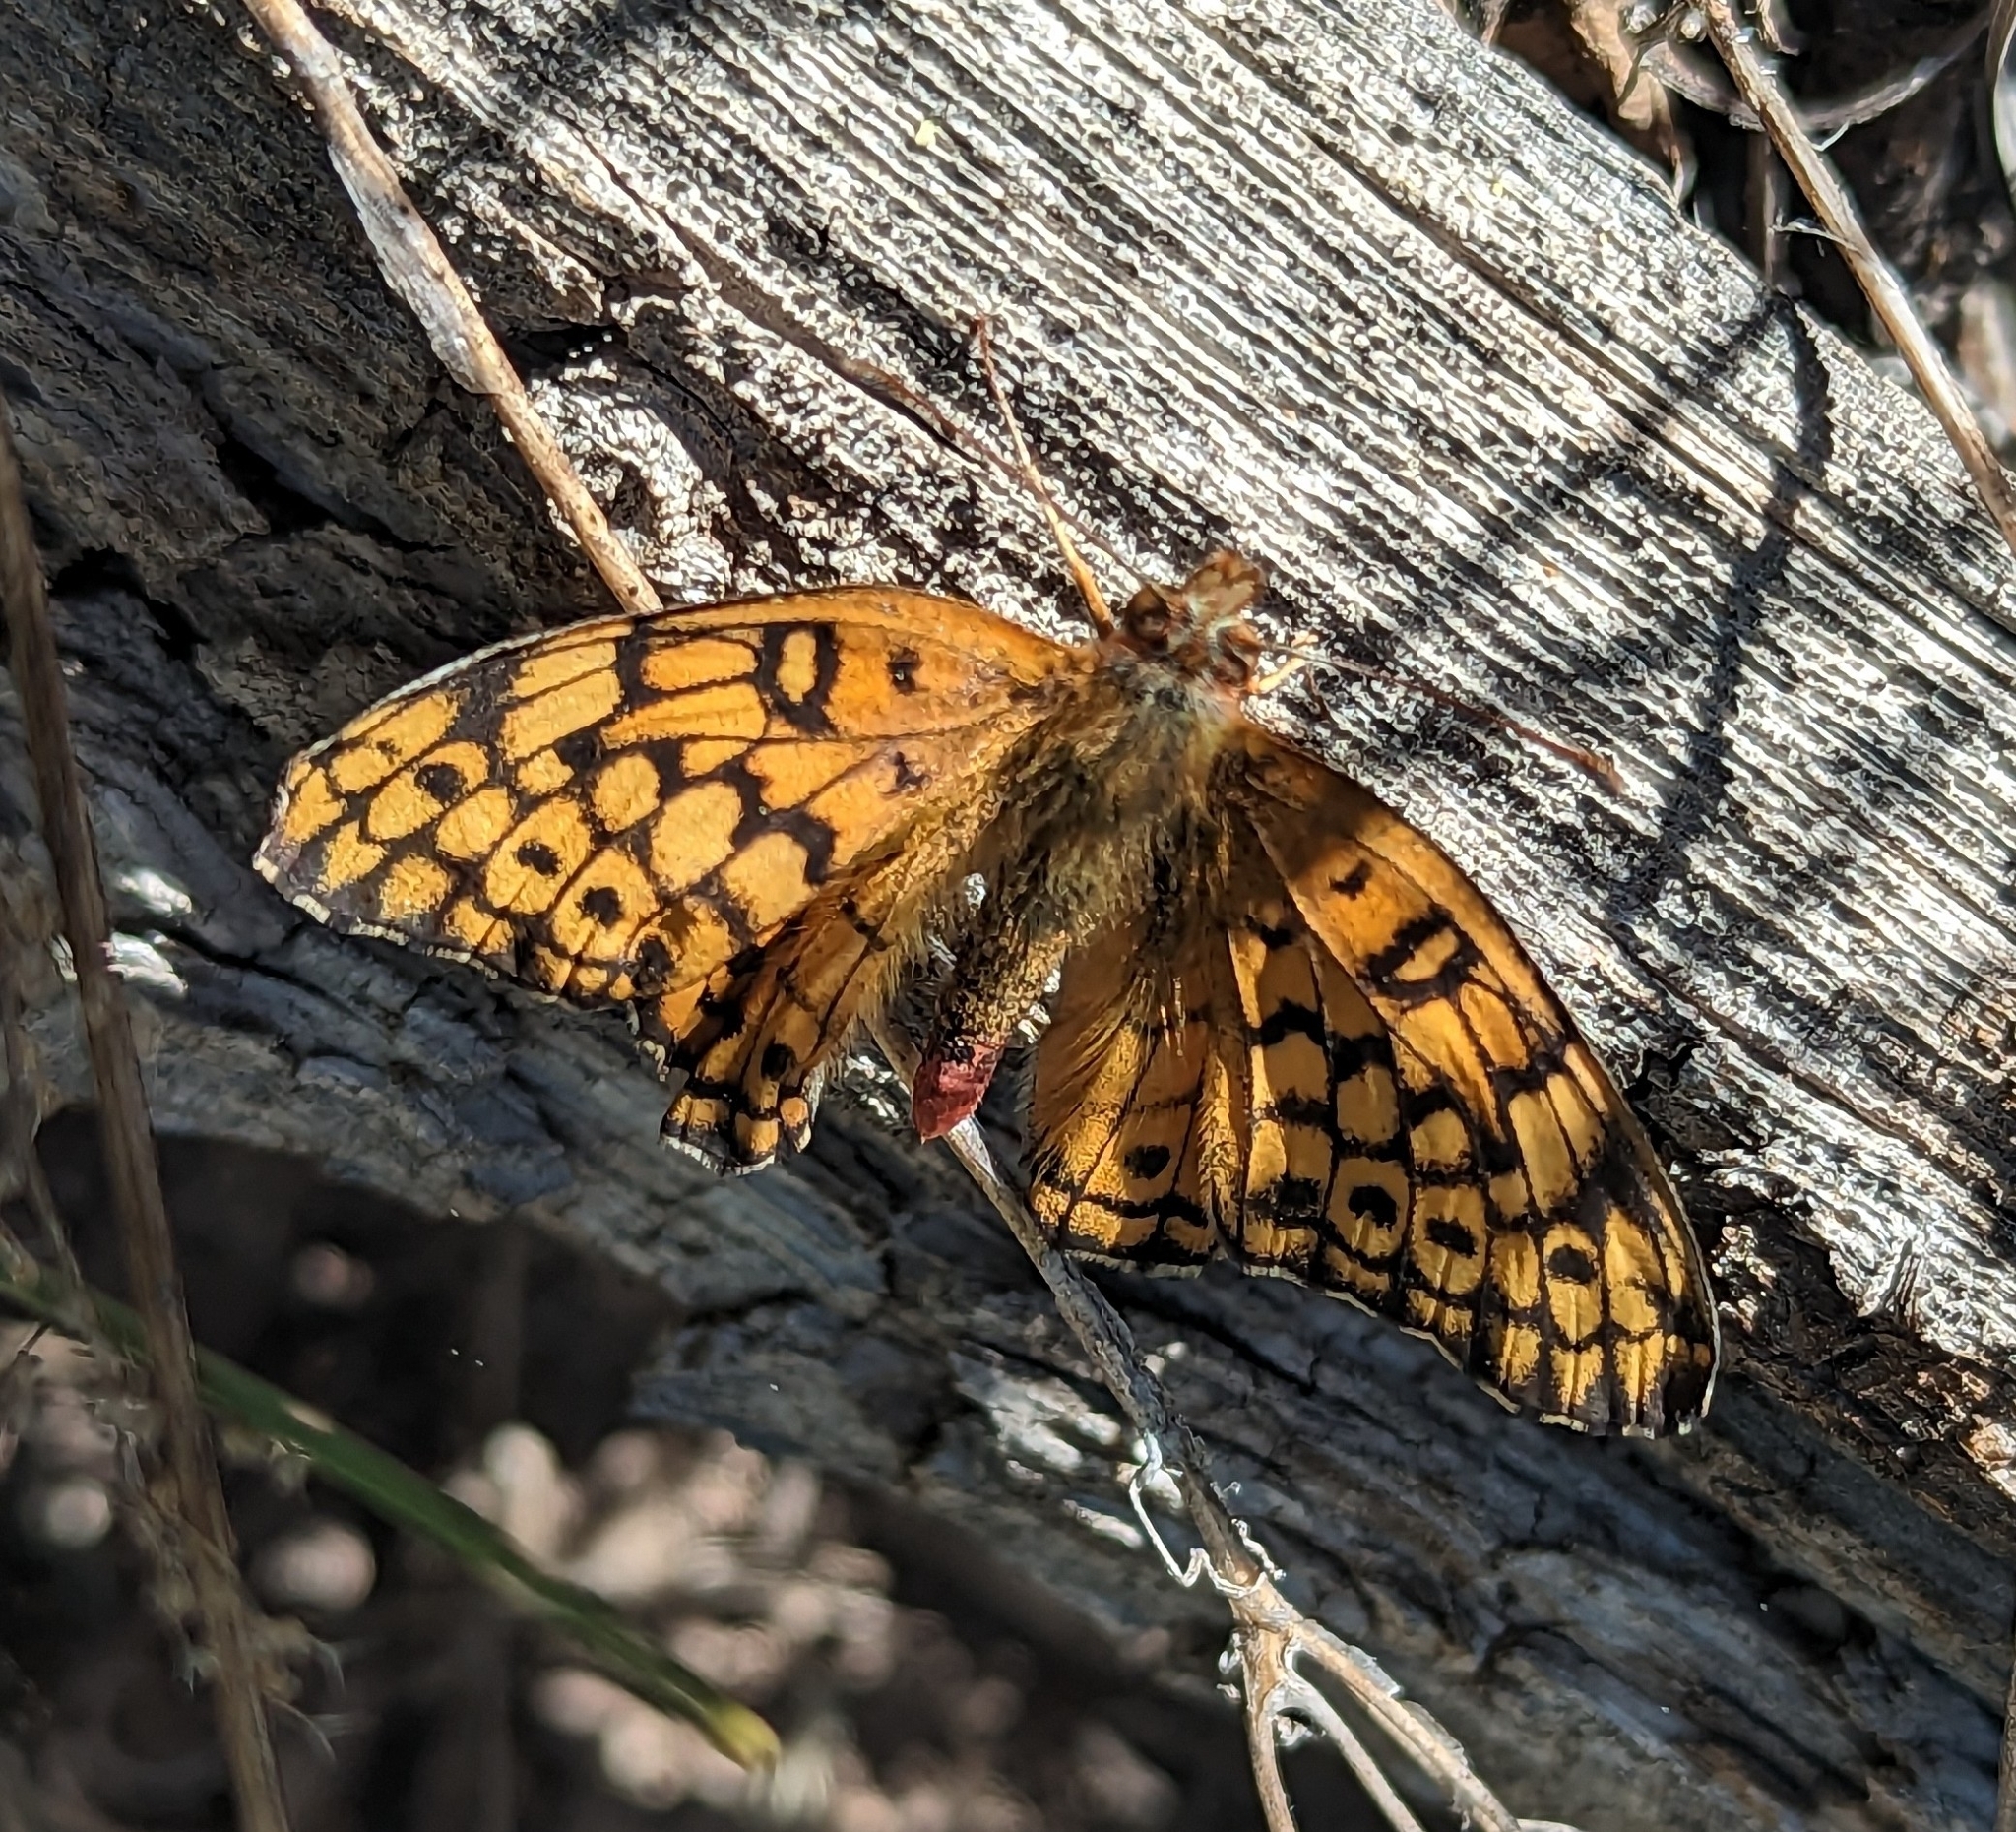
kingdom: Animalia
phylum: Arthropoda
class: Insecta
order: Lepidoptera
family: Nymphalidae
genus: Euptoieta
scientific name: Euptoieta claudia
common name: Variegated fritillary
